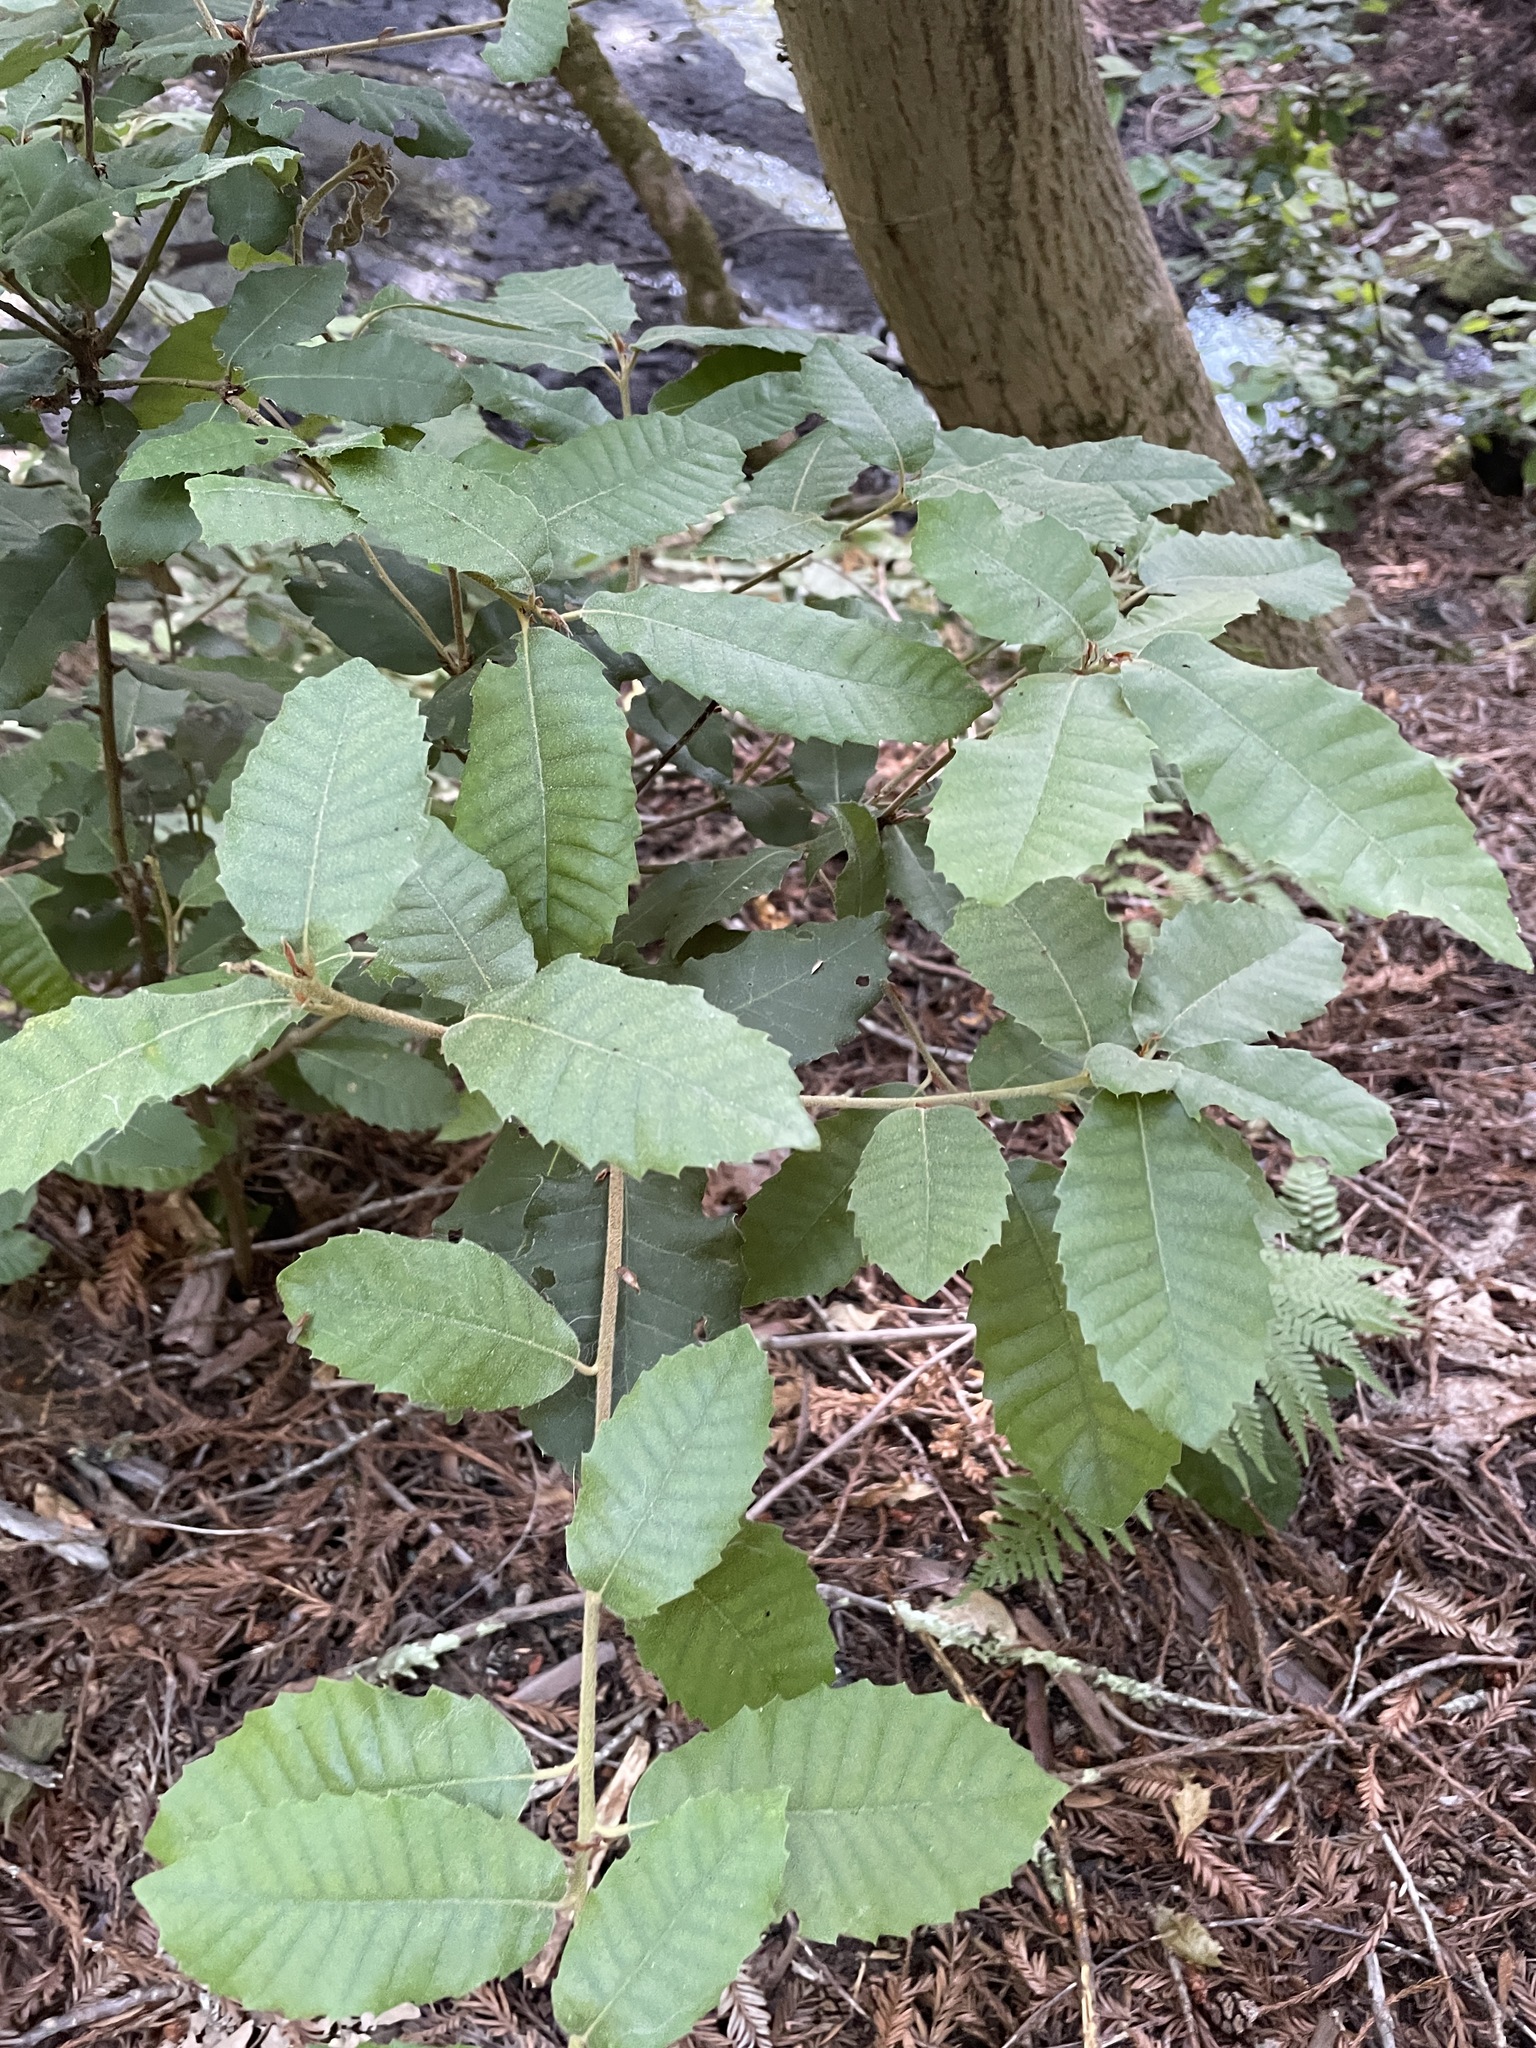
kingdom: Plantae
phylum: Tracheophyta
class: Magnoliopsida
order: Fagales
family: Fagaceae
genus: Notholithocarpus
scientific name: Notholithocarpus densiflorus
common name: Tan bark oak
